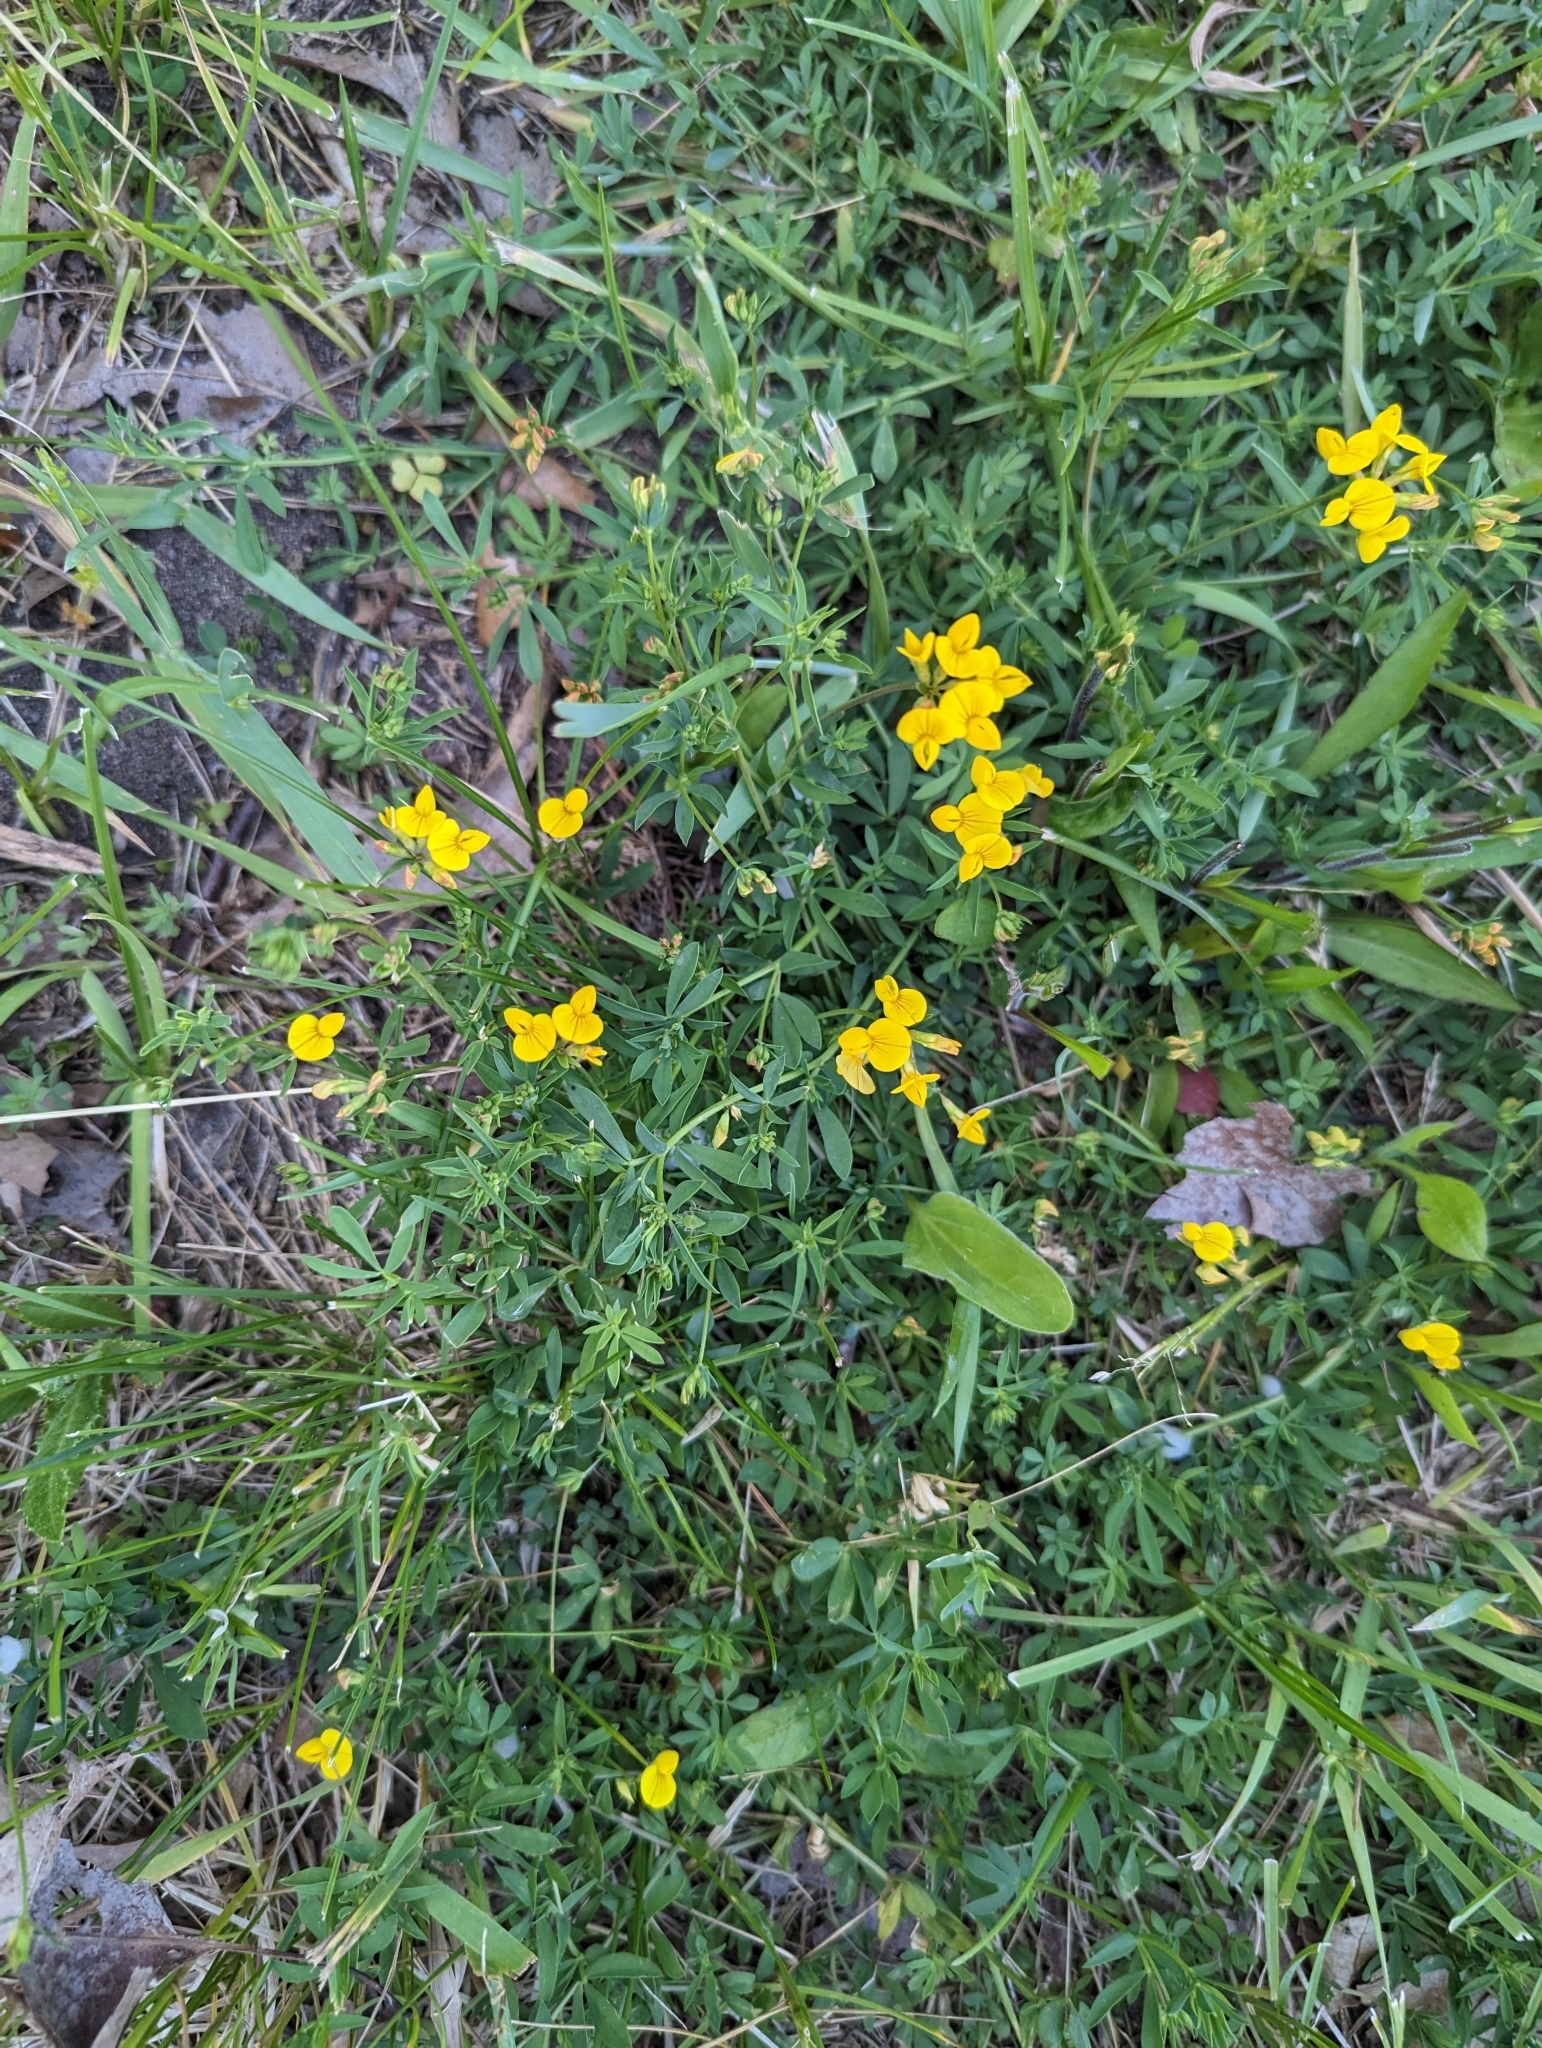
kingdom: Plantae
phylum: Tracheophyta
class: Magnoliopsida
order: Fabales
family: Fabaceae
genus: Lotus
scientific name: Lotus corniculatus
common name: Common bird's-foot-trefoil
